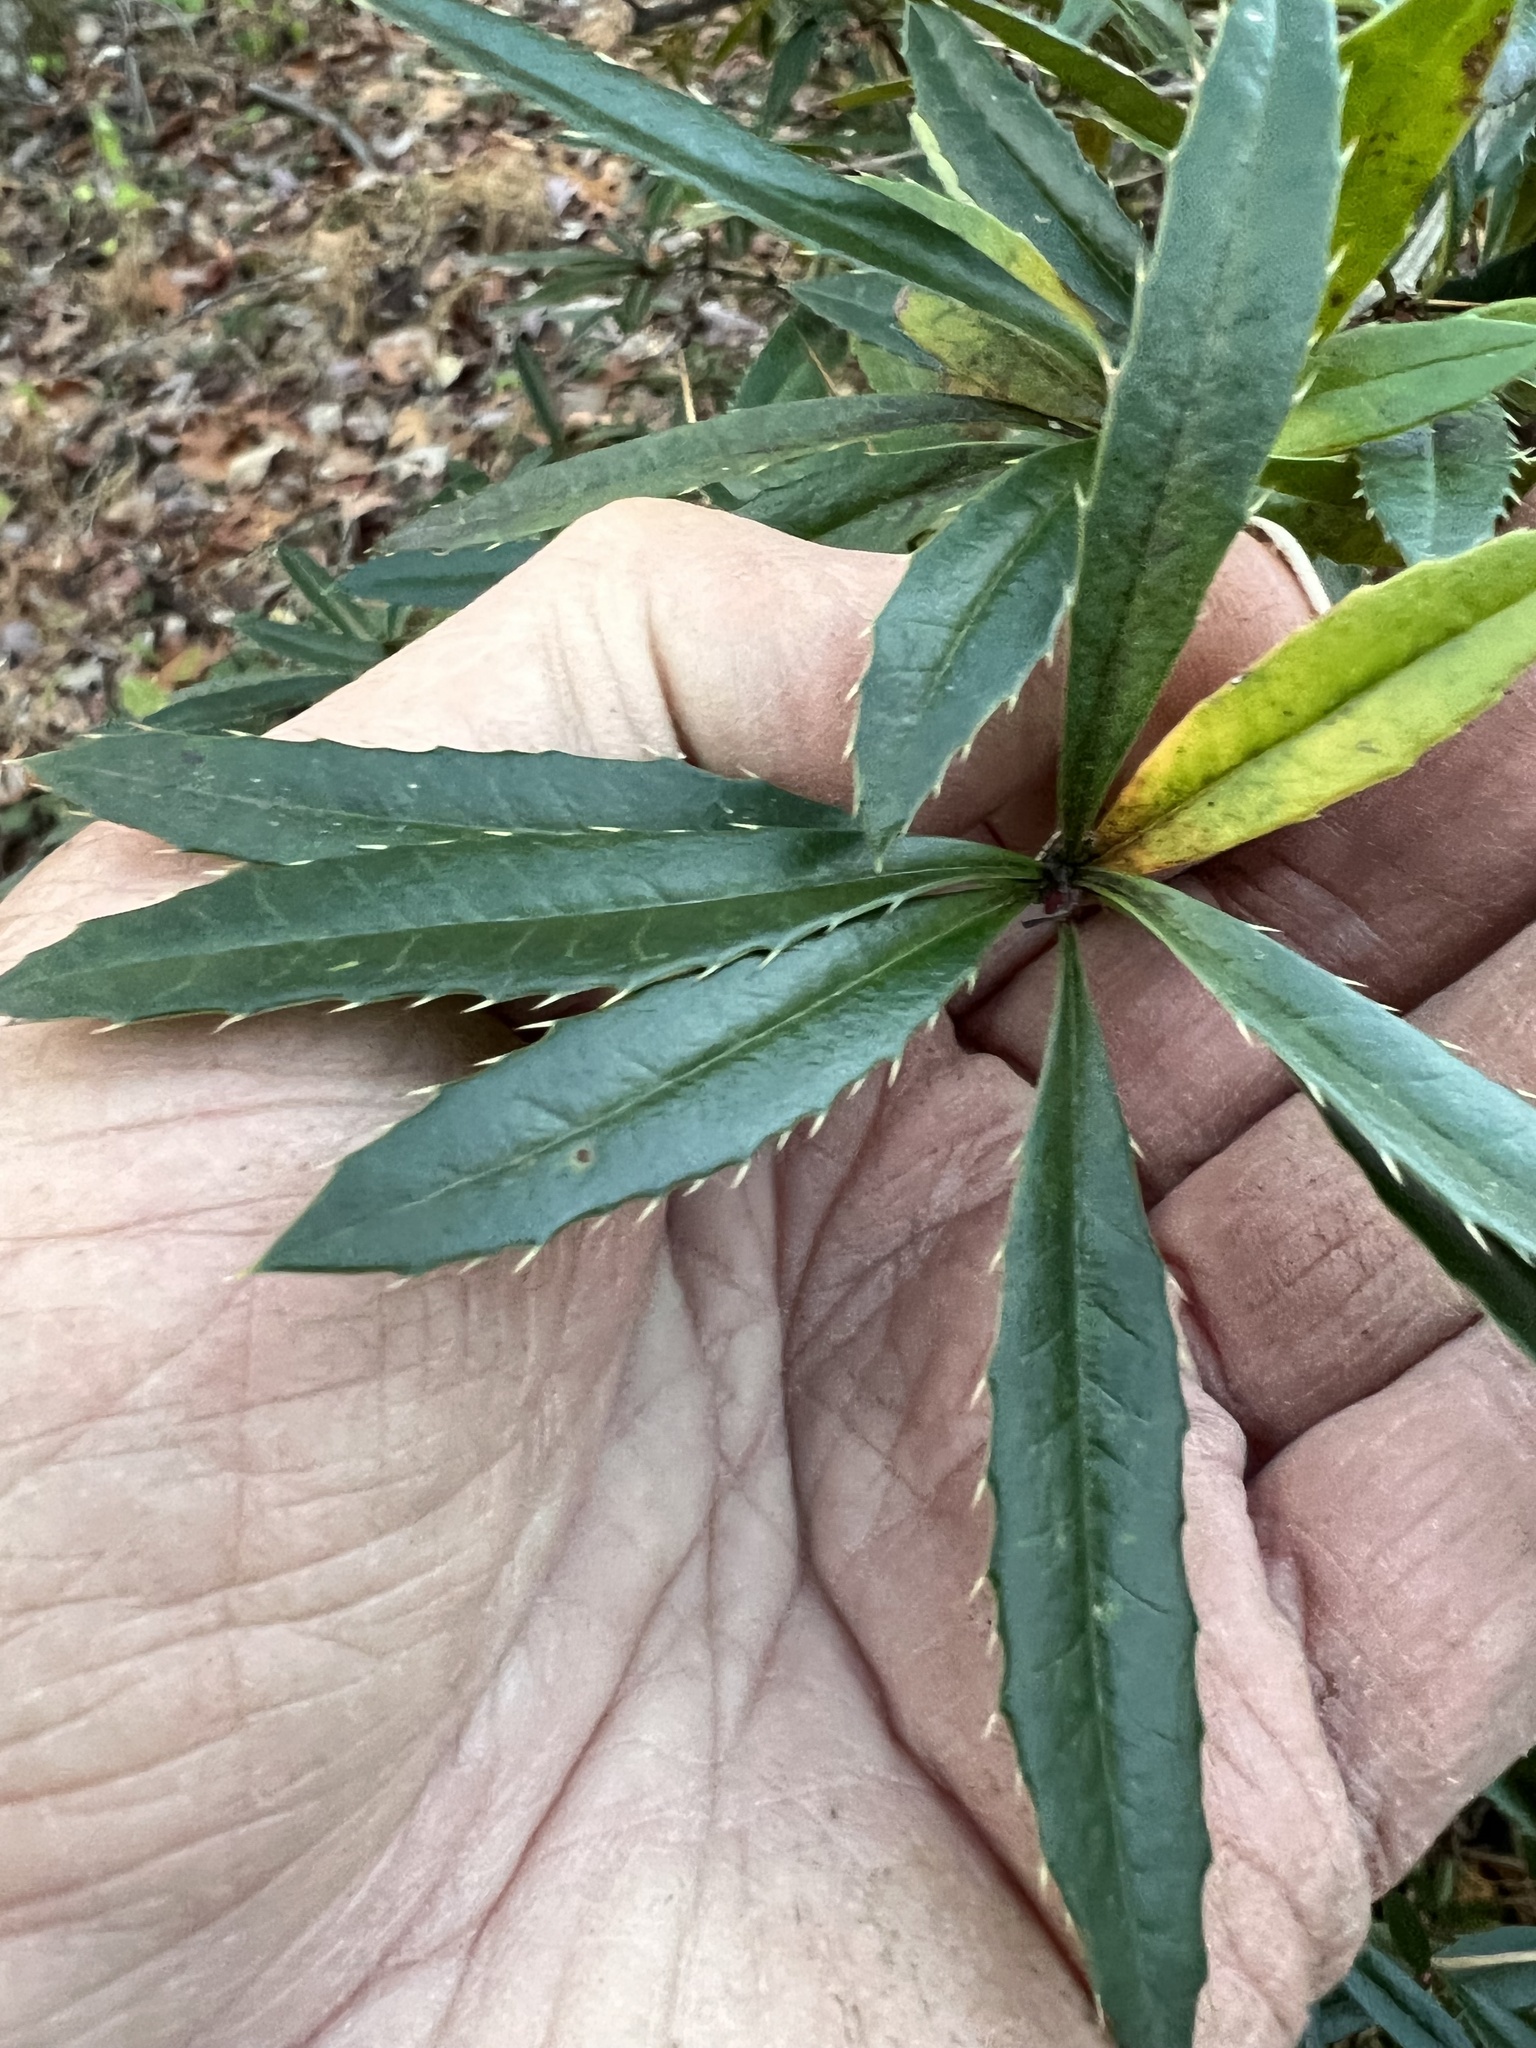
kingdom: Plantae
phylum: Tracheophyta
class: Magnoliopsida
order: Ranunculales
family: Berberidaceae
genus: Berberis
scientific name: Berberis julianae
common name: Wintergreen barberry
